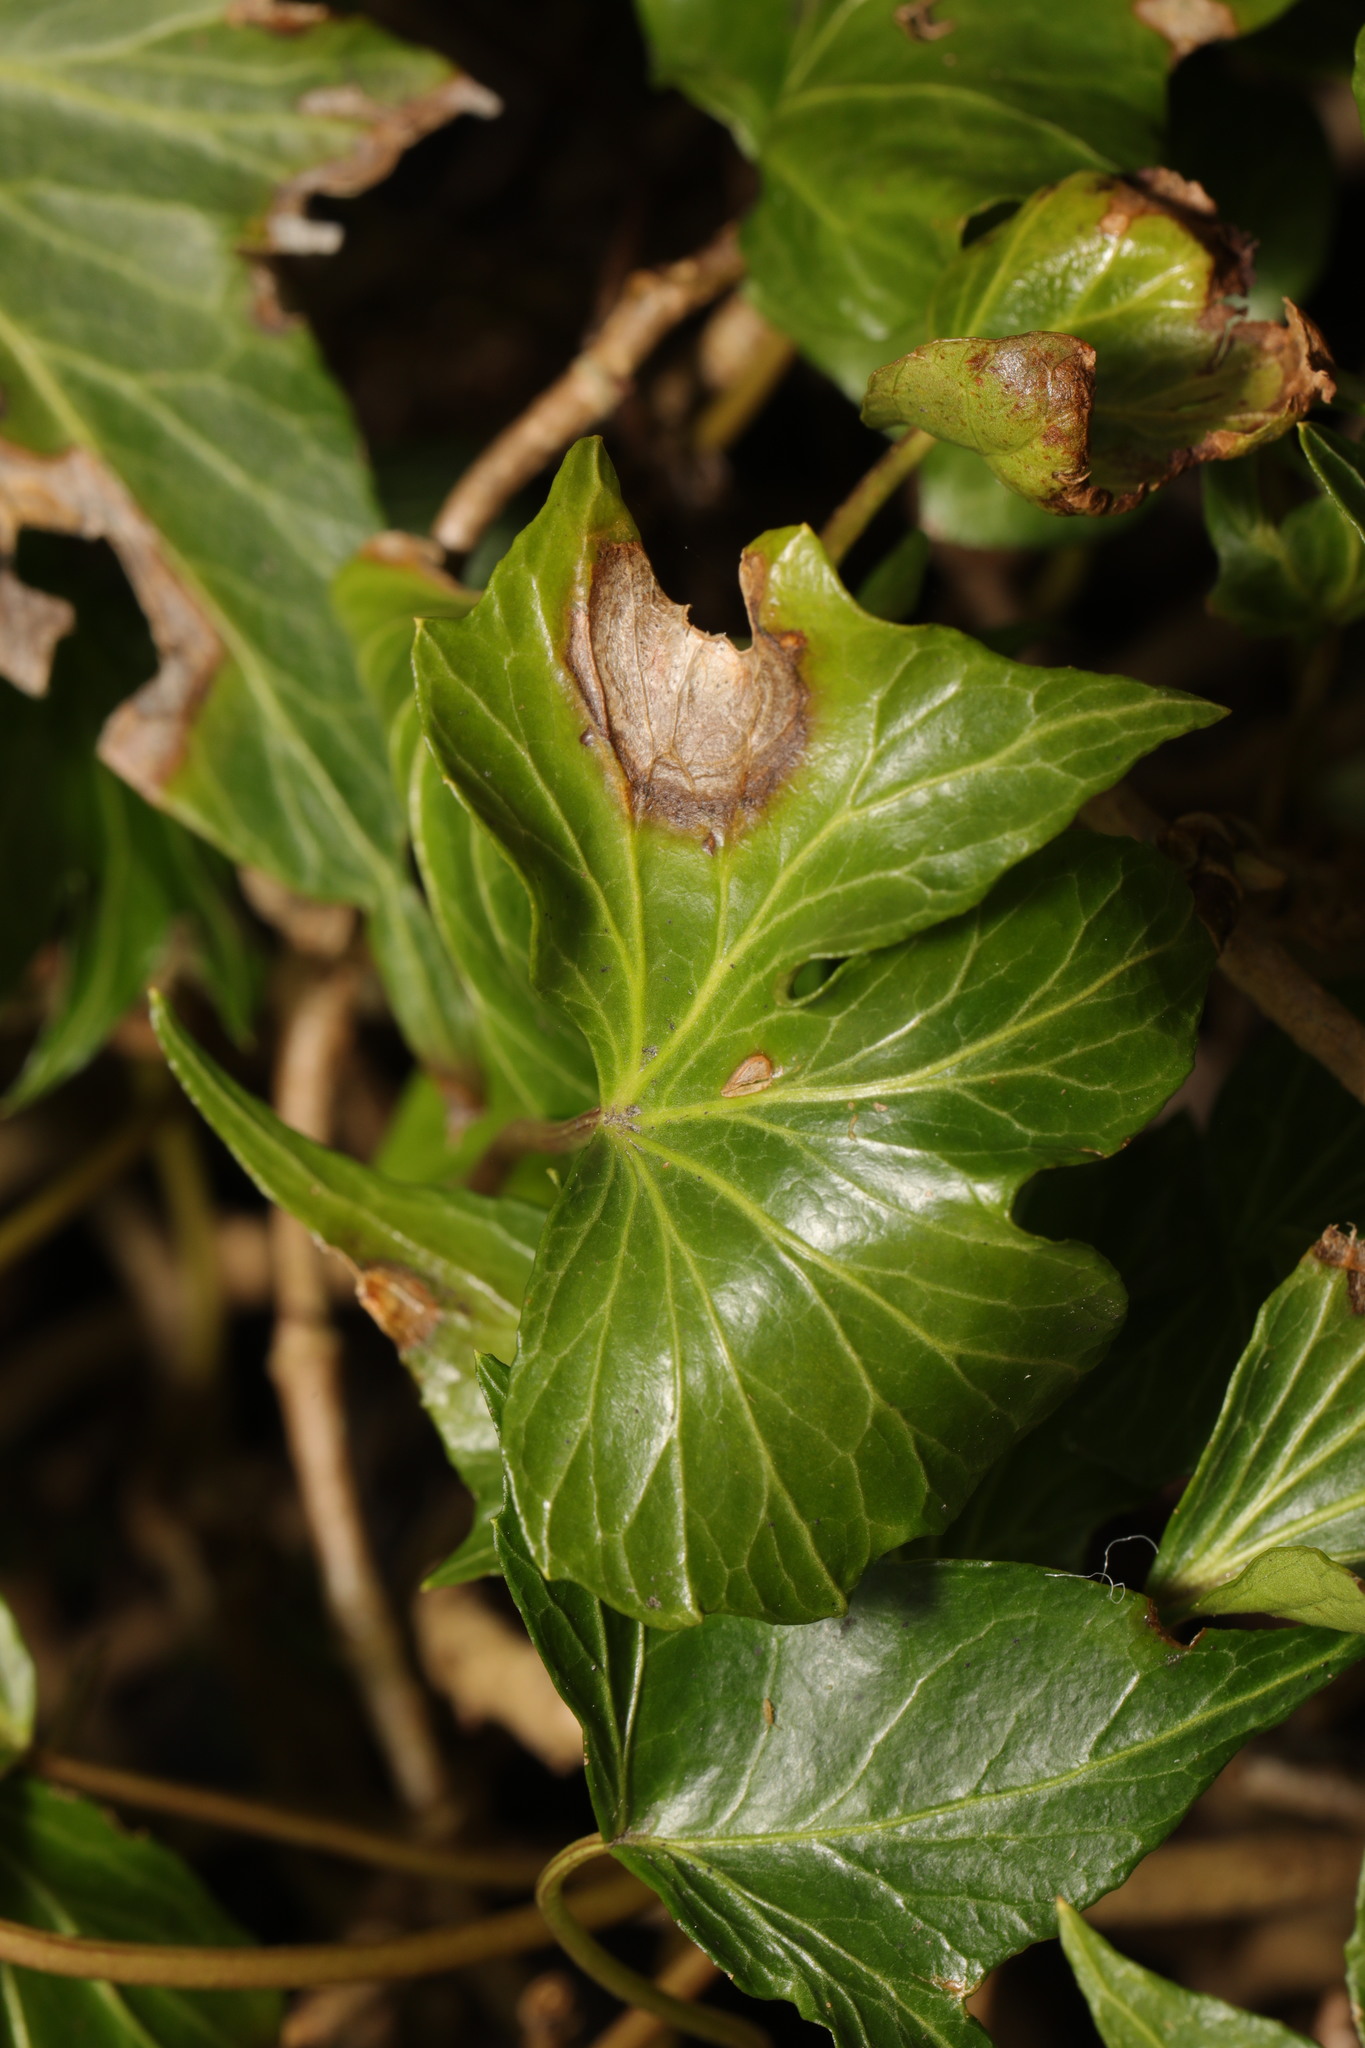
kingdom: Fungi
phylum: Ascomycota
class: Dothideomycetes
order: Pleosporales
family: Didymellaceae
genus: Boeremia
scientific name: Boeremia hedericola
